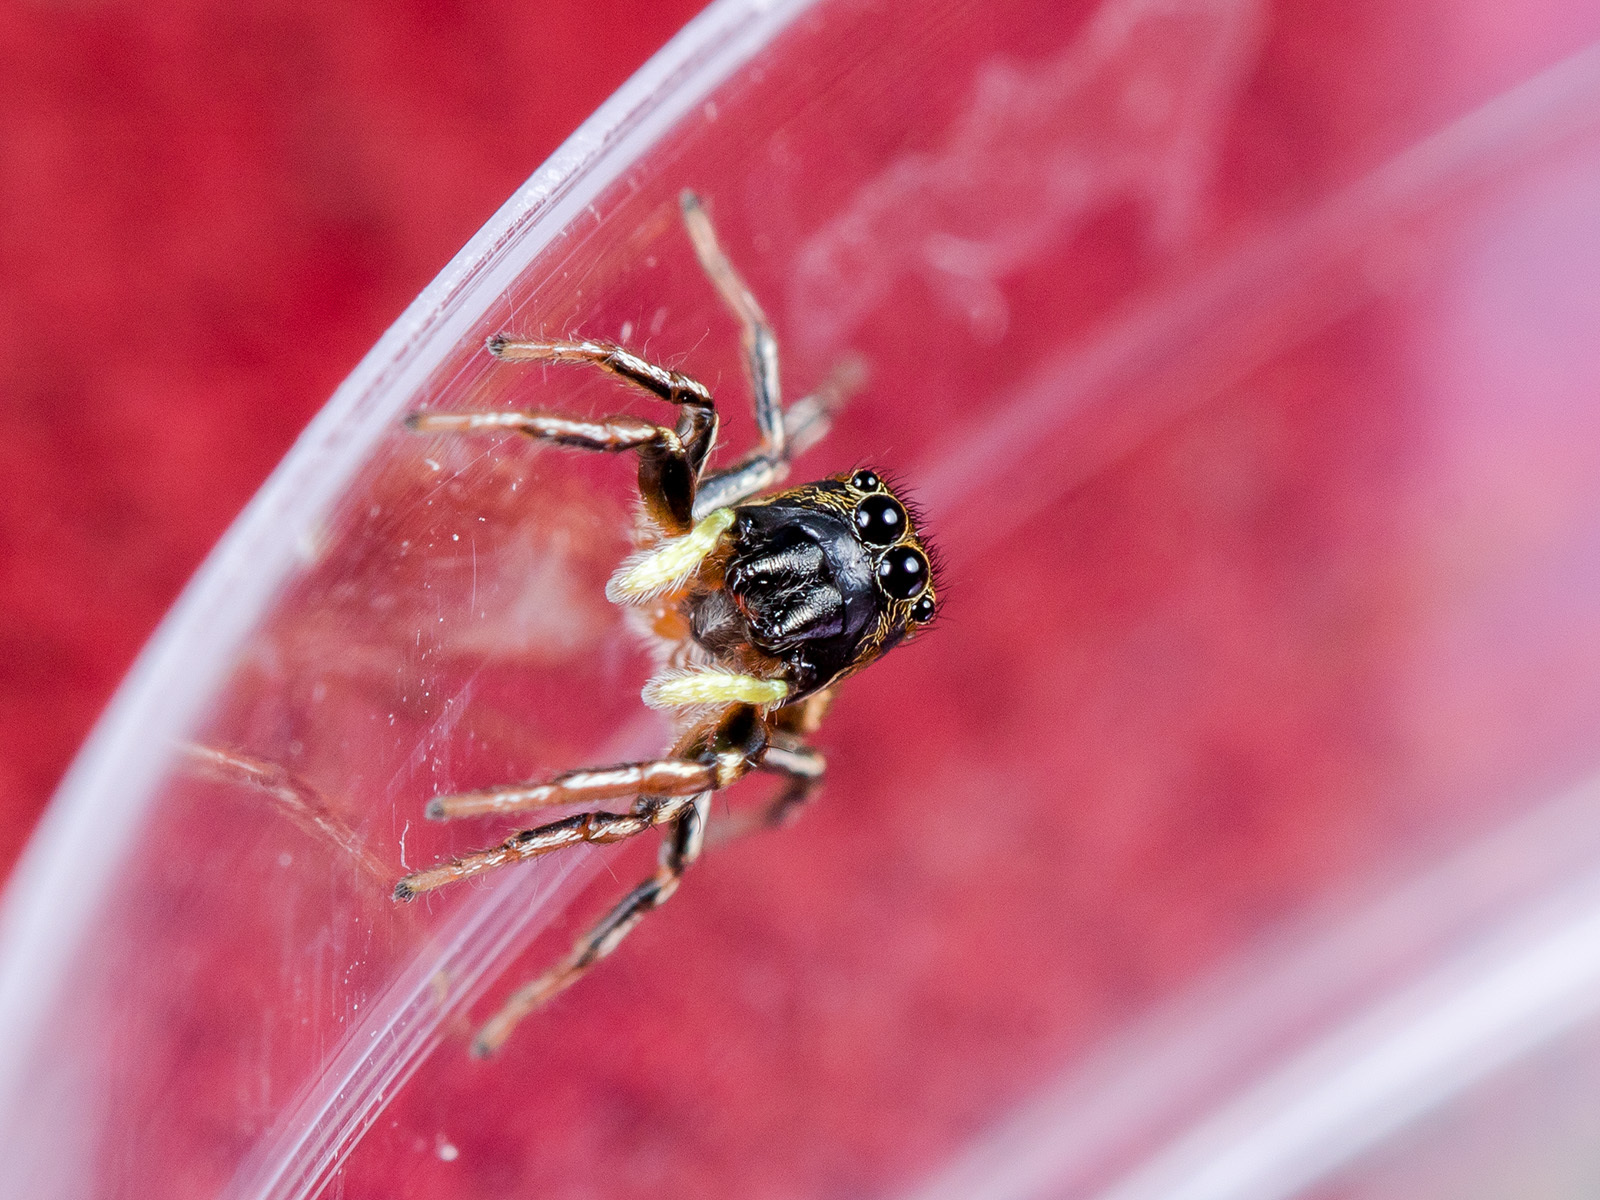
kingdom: Animalia
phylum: Arthropoda
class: Arachnida
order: Araneae
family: Salticidae
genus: Heliophanus
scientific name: Heliophanus auratus
